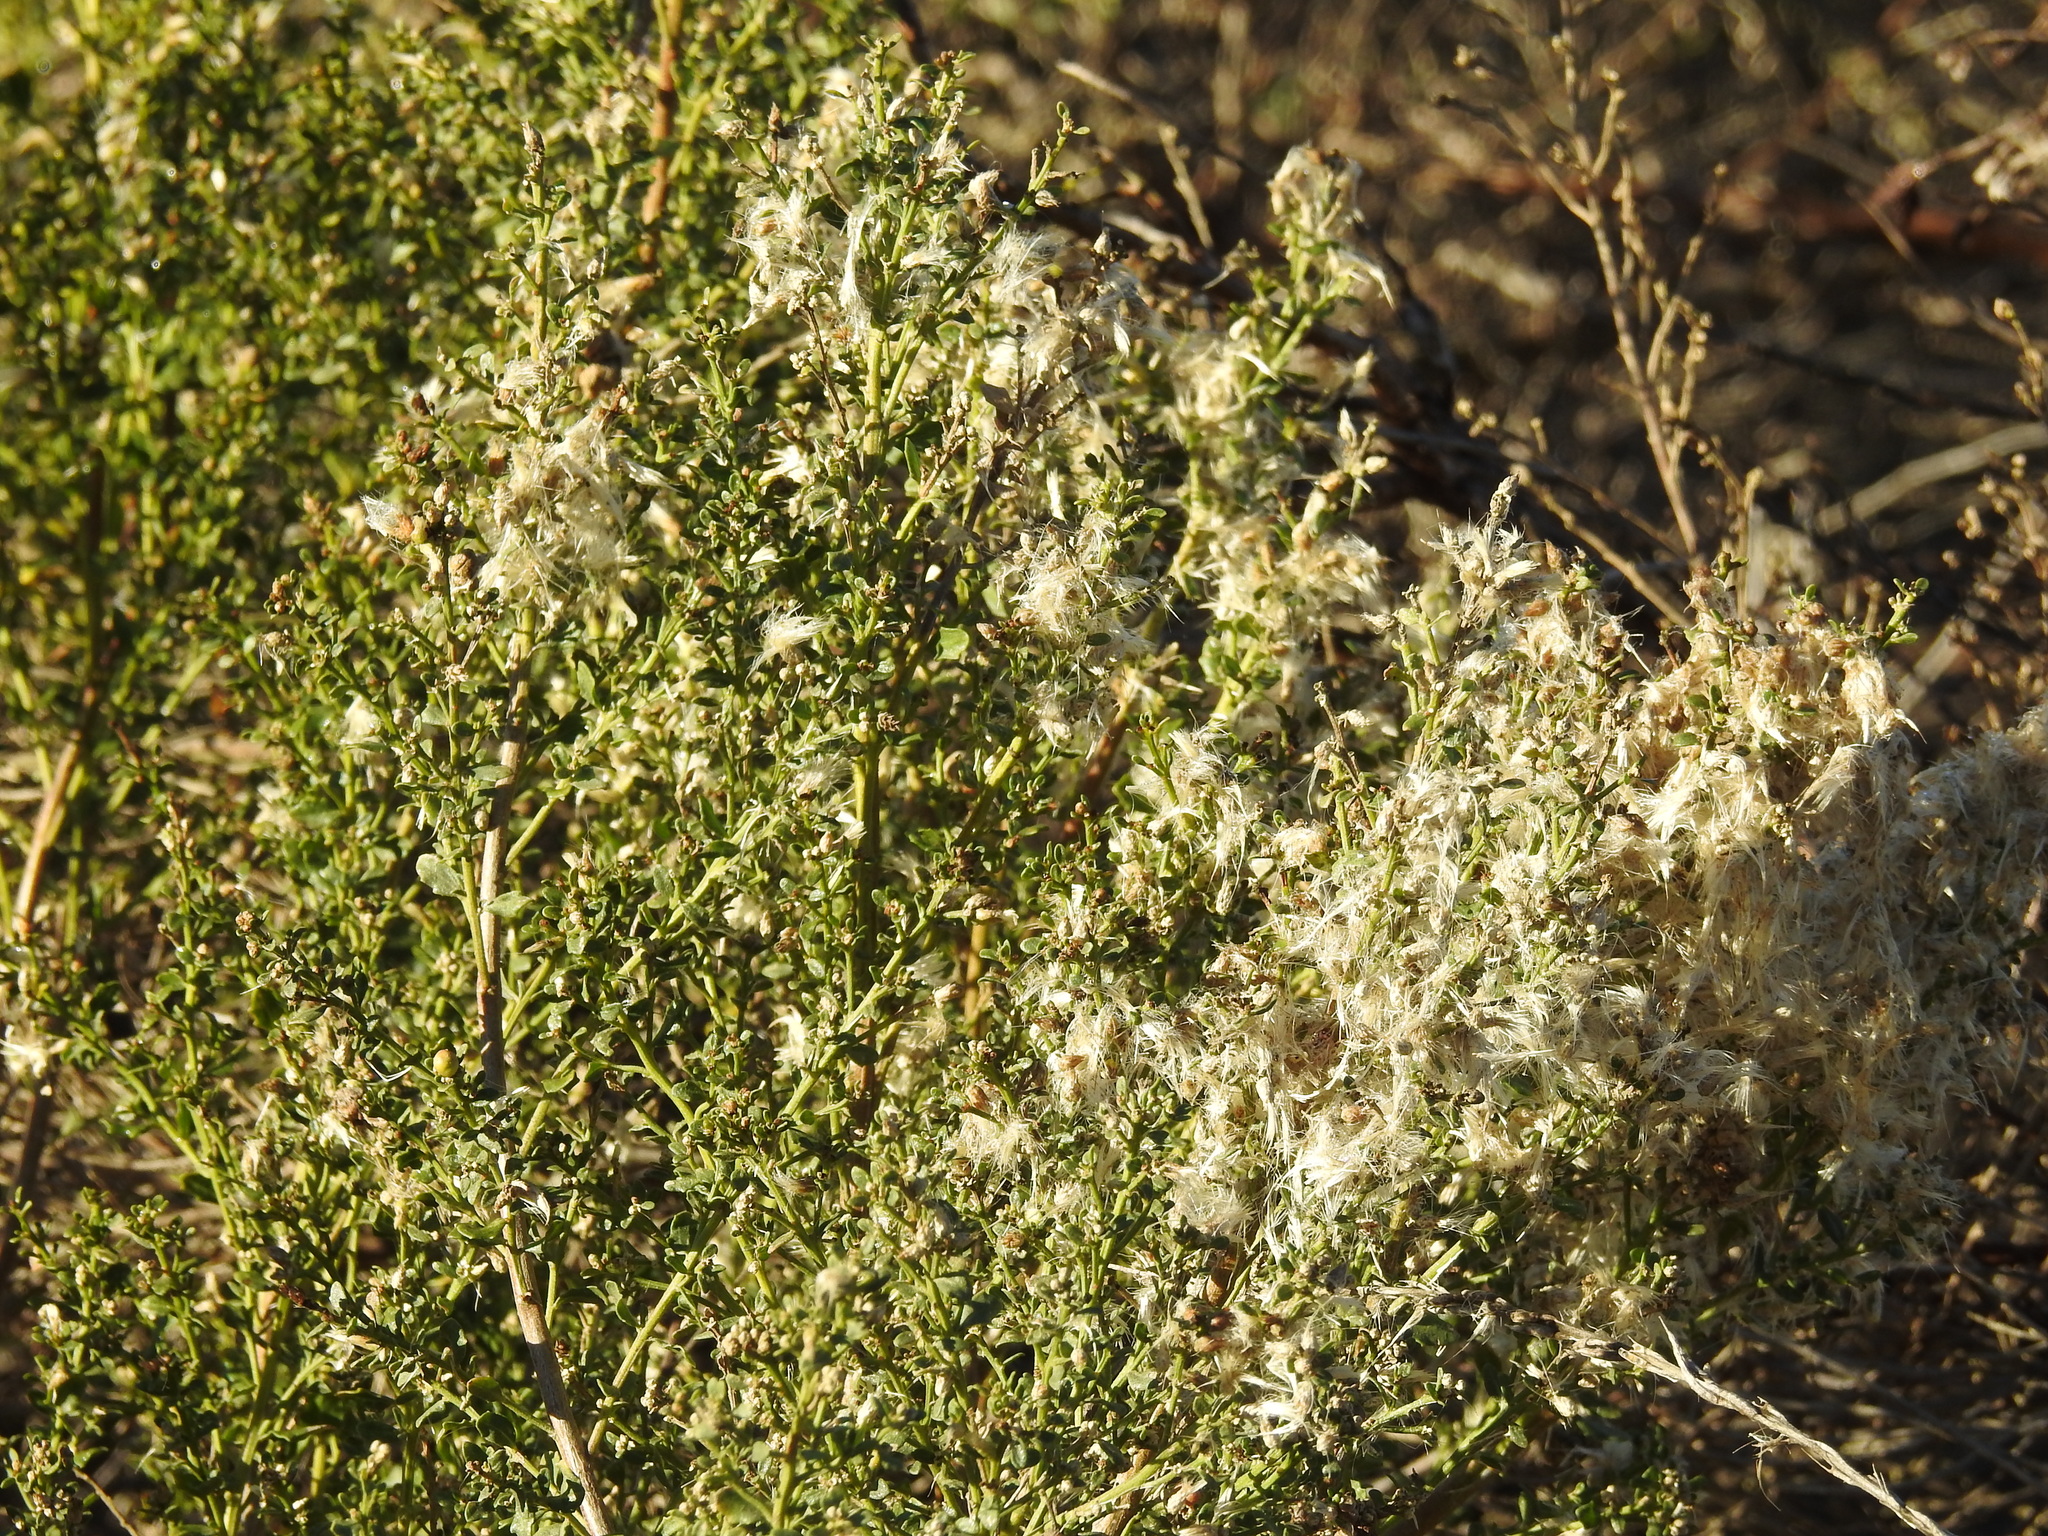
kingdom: Plantae
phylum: Tracheophyta
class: Magnoliopsida
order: Asterales
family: Asteraceae
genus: Baccharis
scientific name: Baccharis pilularis
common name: Coyotebrush
